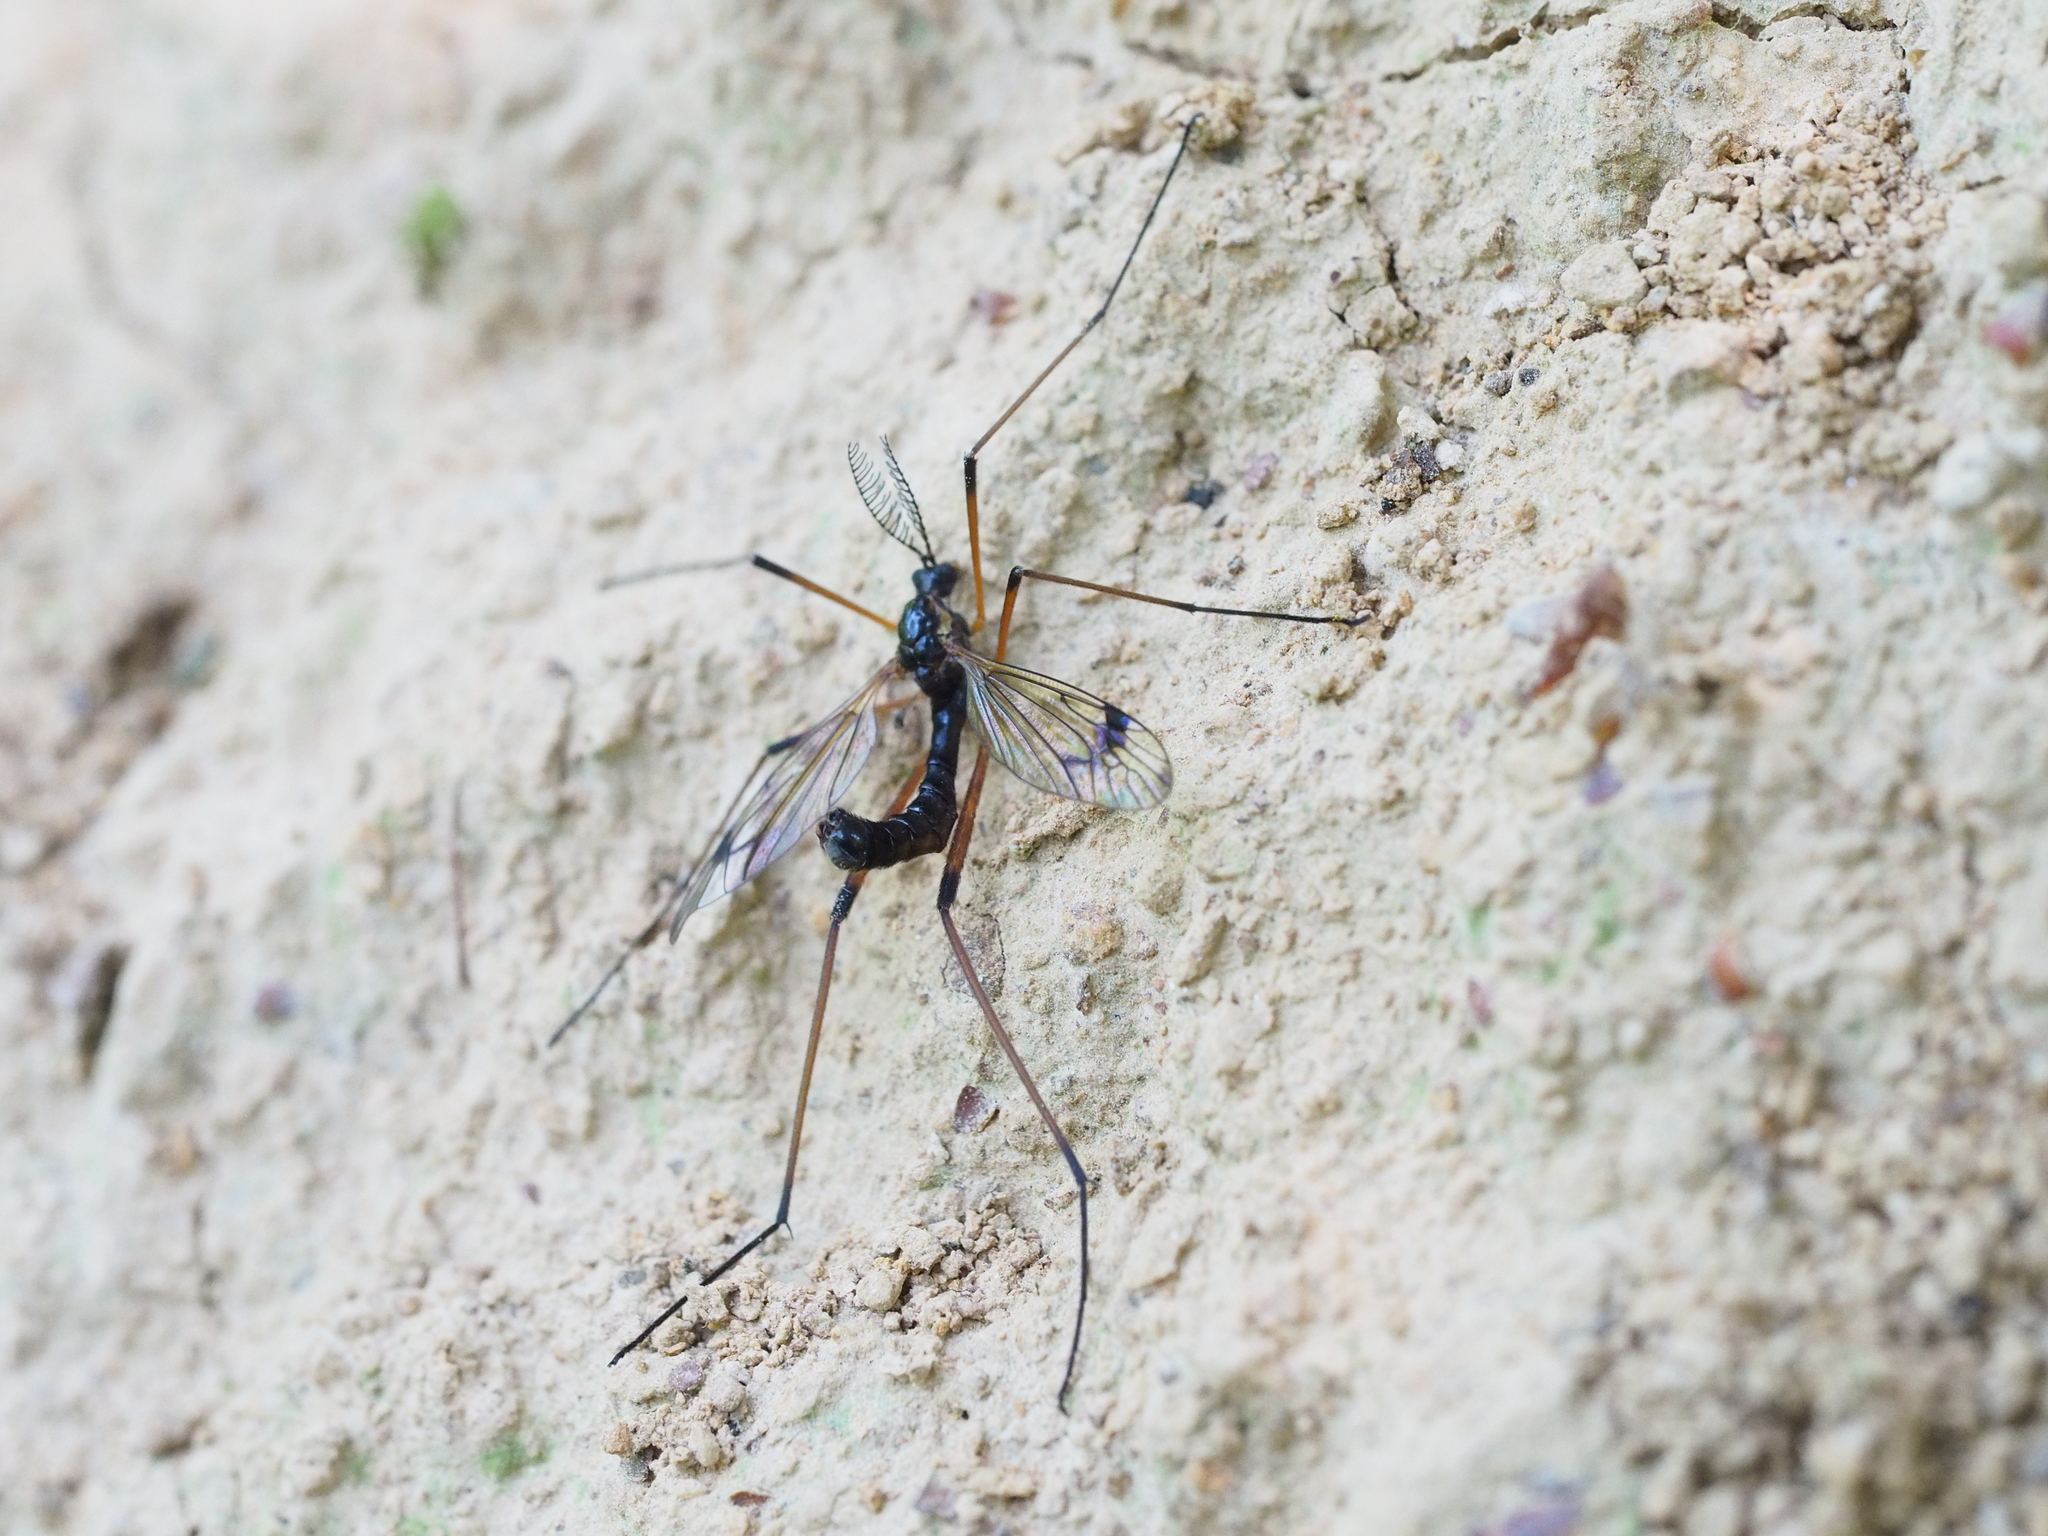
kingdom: Animalia
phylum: Arthropoda
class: Insecta
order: Diptera
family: Tipulidae
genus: Dictenidia
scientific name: Dictenidia bimaculata
